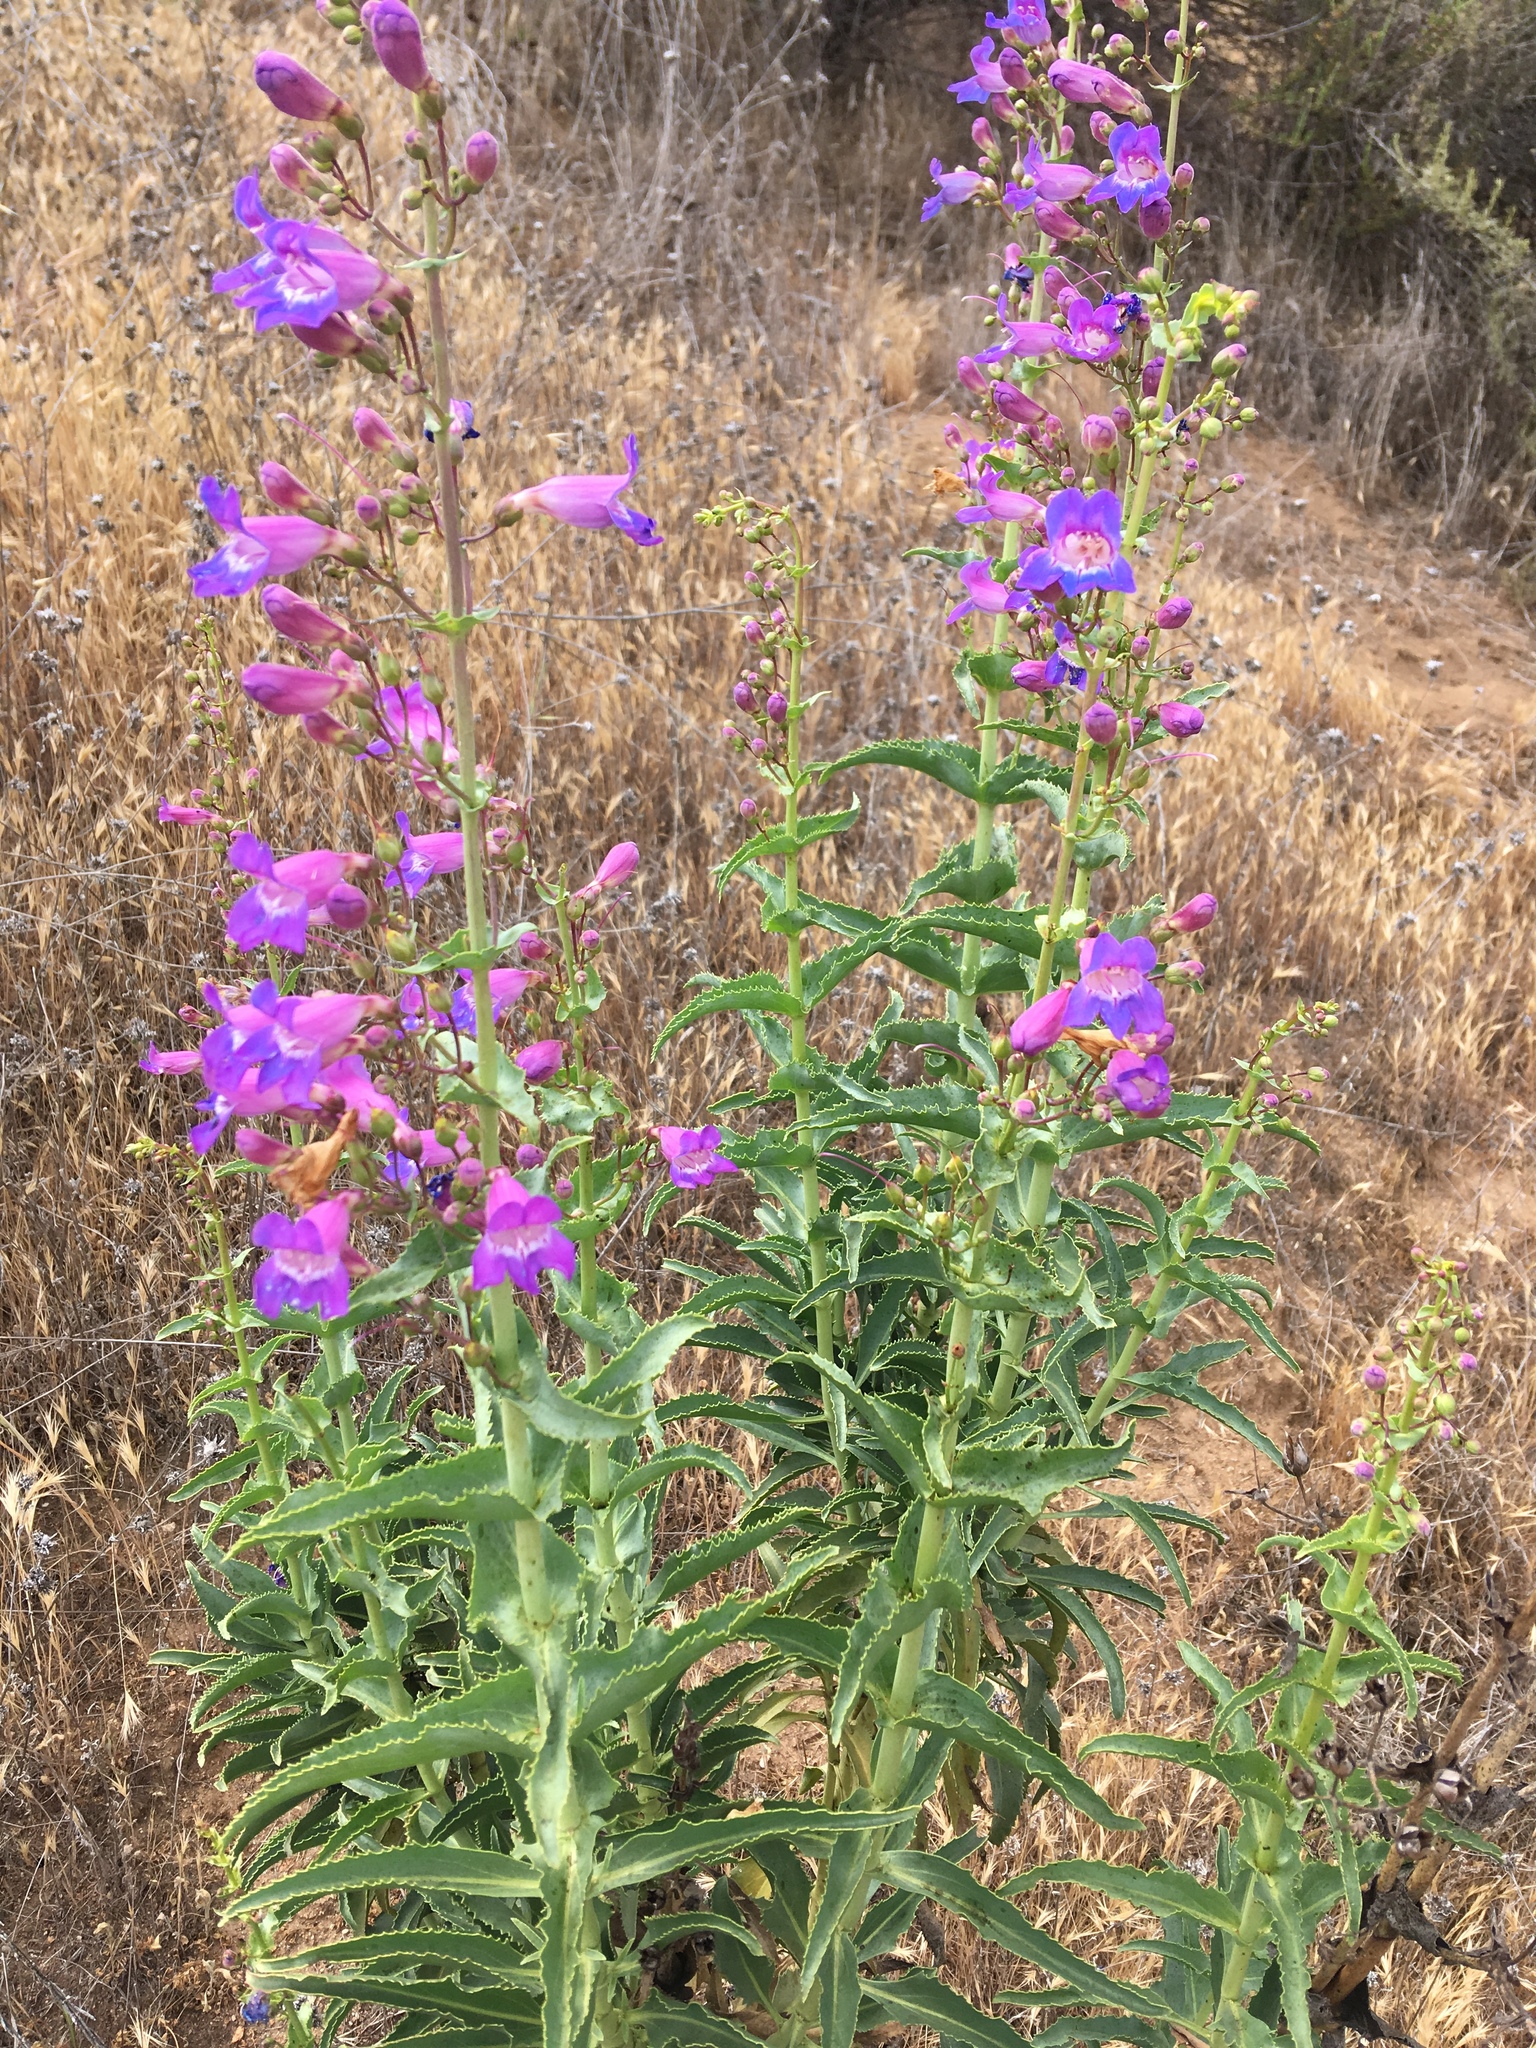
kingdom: Plantae
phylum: Tracheophyta
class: Magnoliopsida
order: Lamiales
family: Plantaginaceae
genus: Penstemon
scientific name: Penstemon spectabilis
